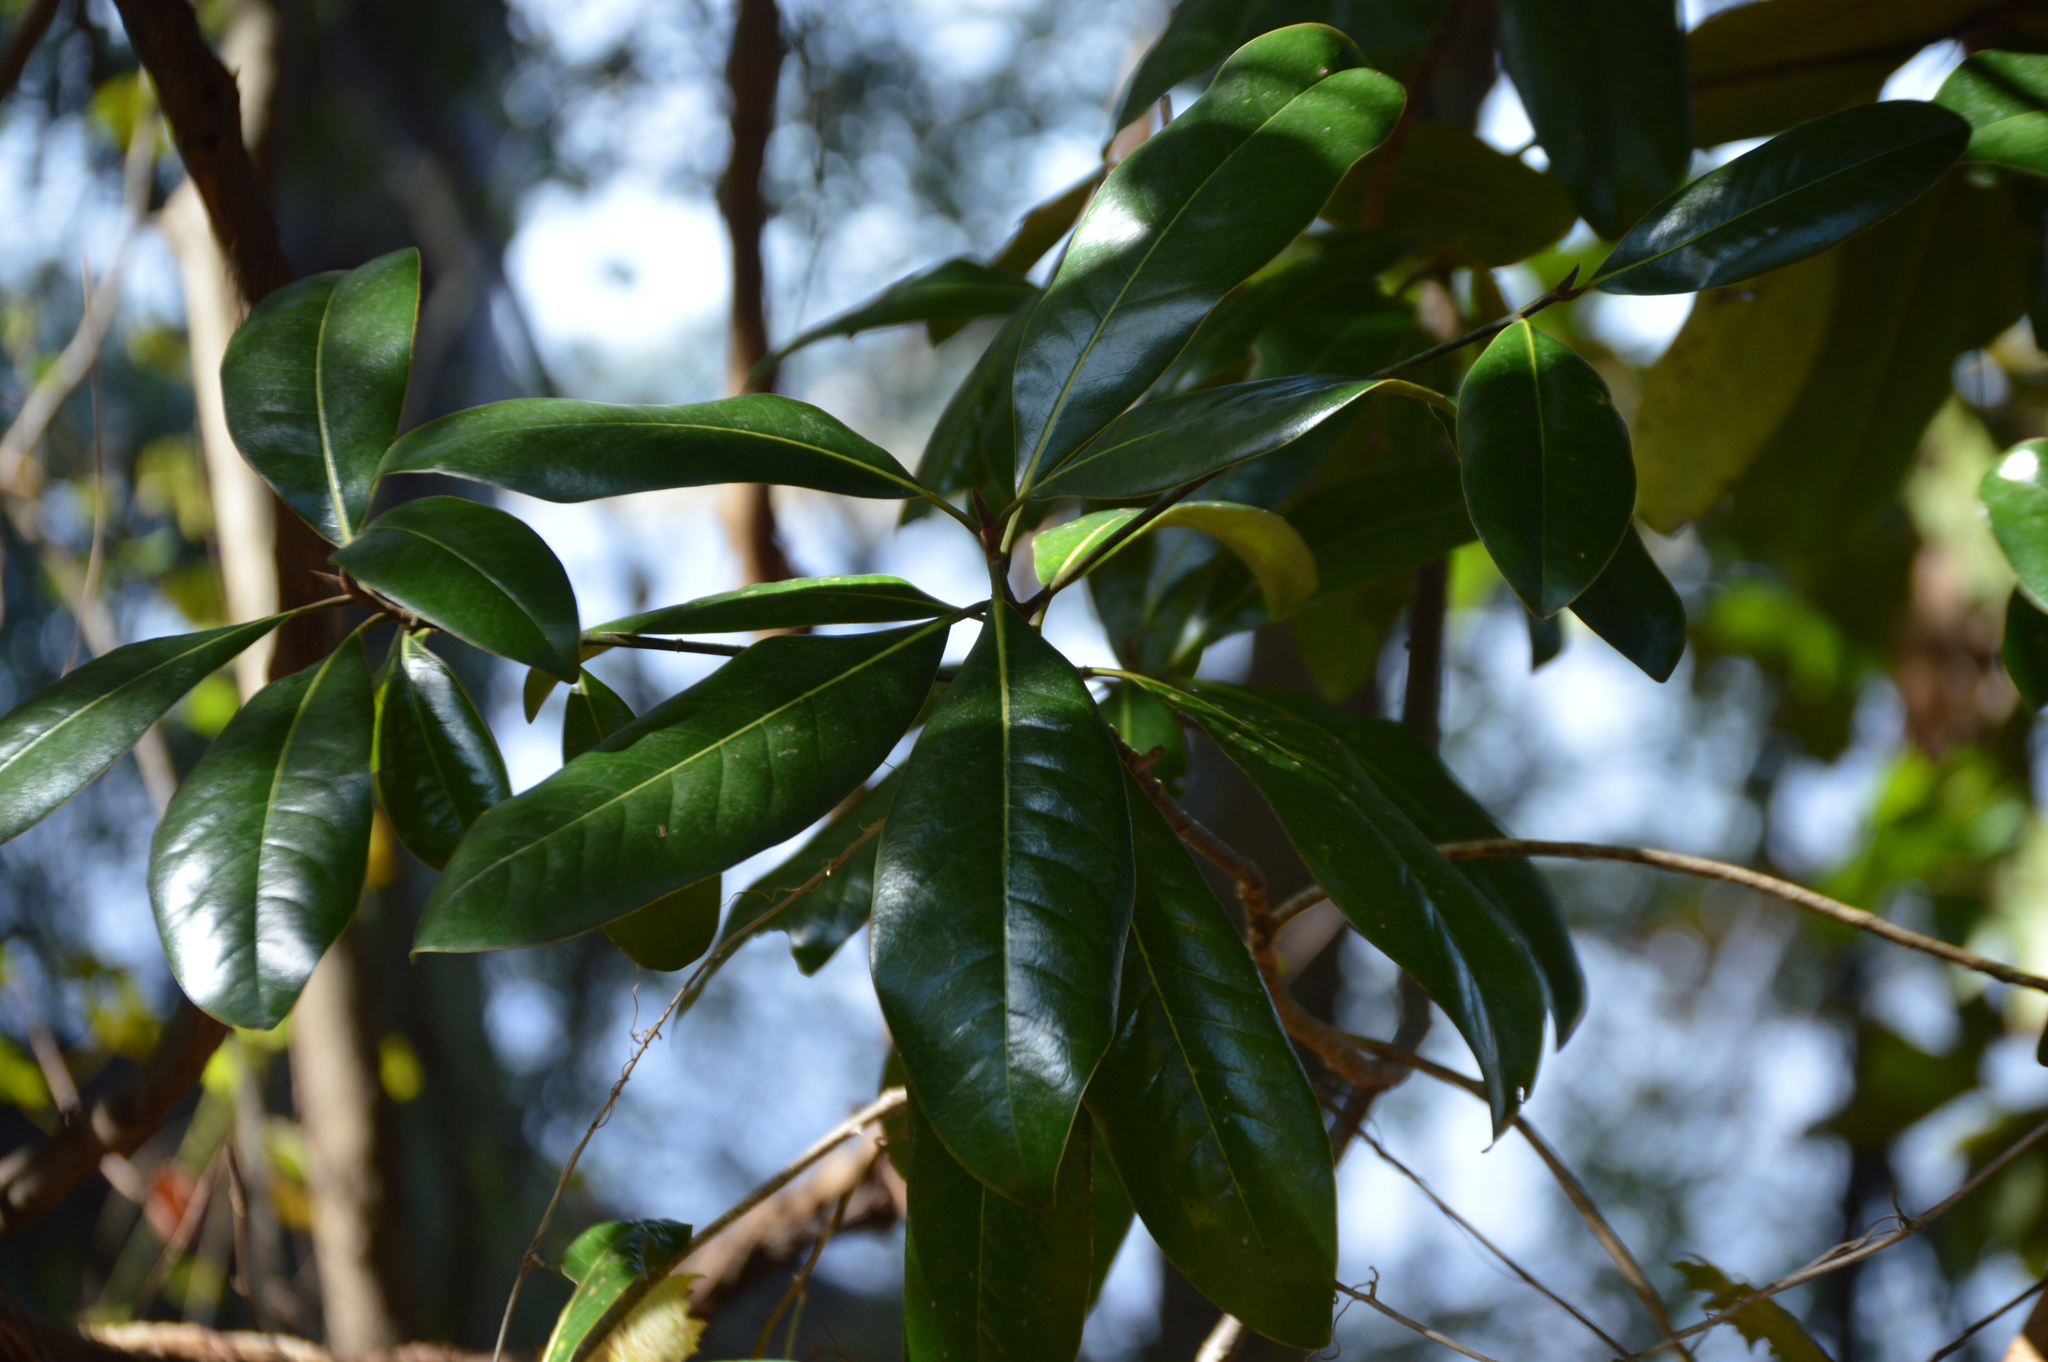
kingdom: Plantae
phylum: Tracheophyta
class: Magnoliopsida
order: Magnoliales
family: Magnoliaceae
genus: Magnolia
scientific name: Magnolia grandiflora
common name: Southern magnolia
